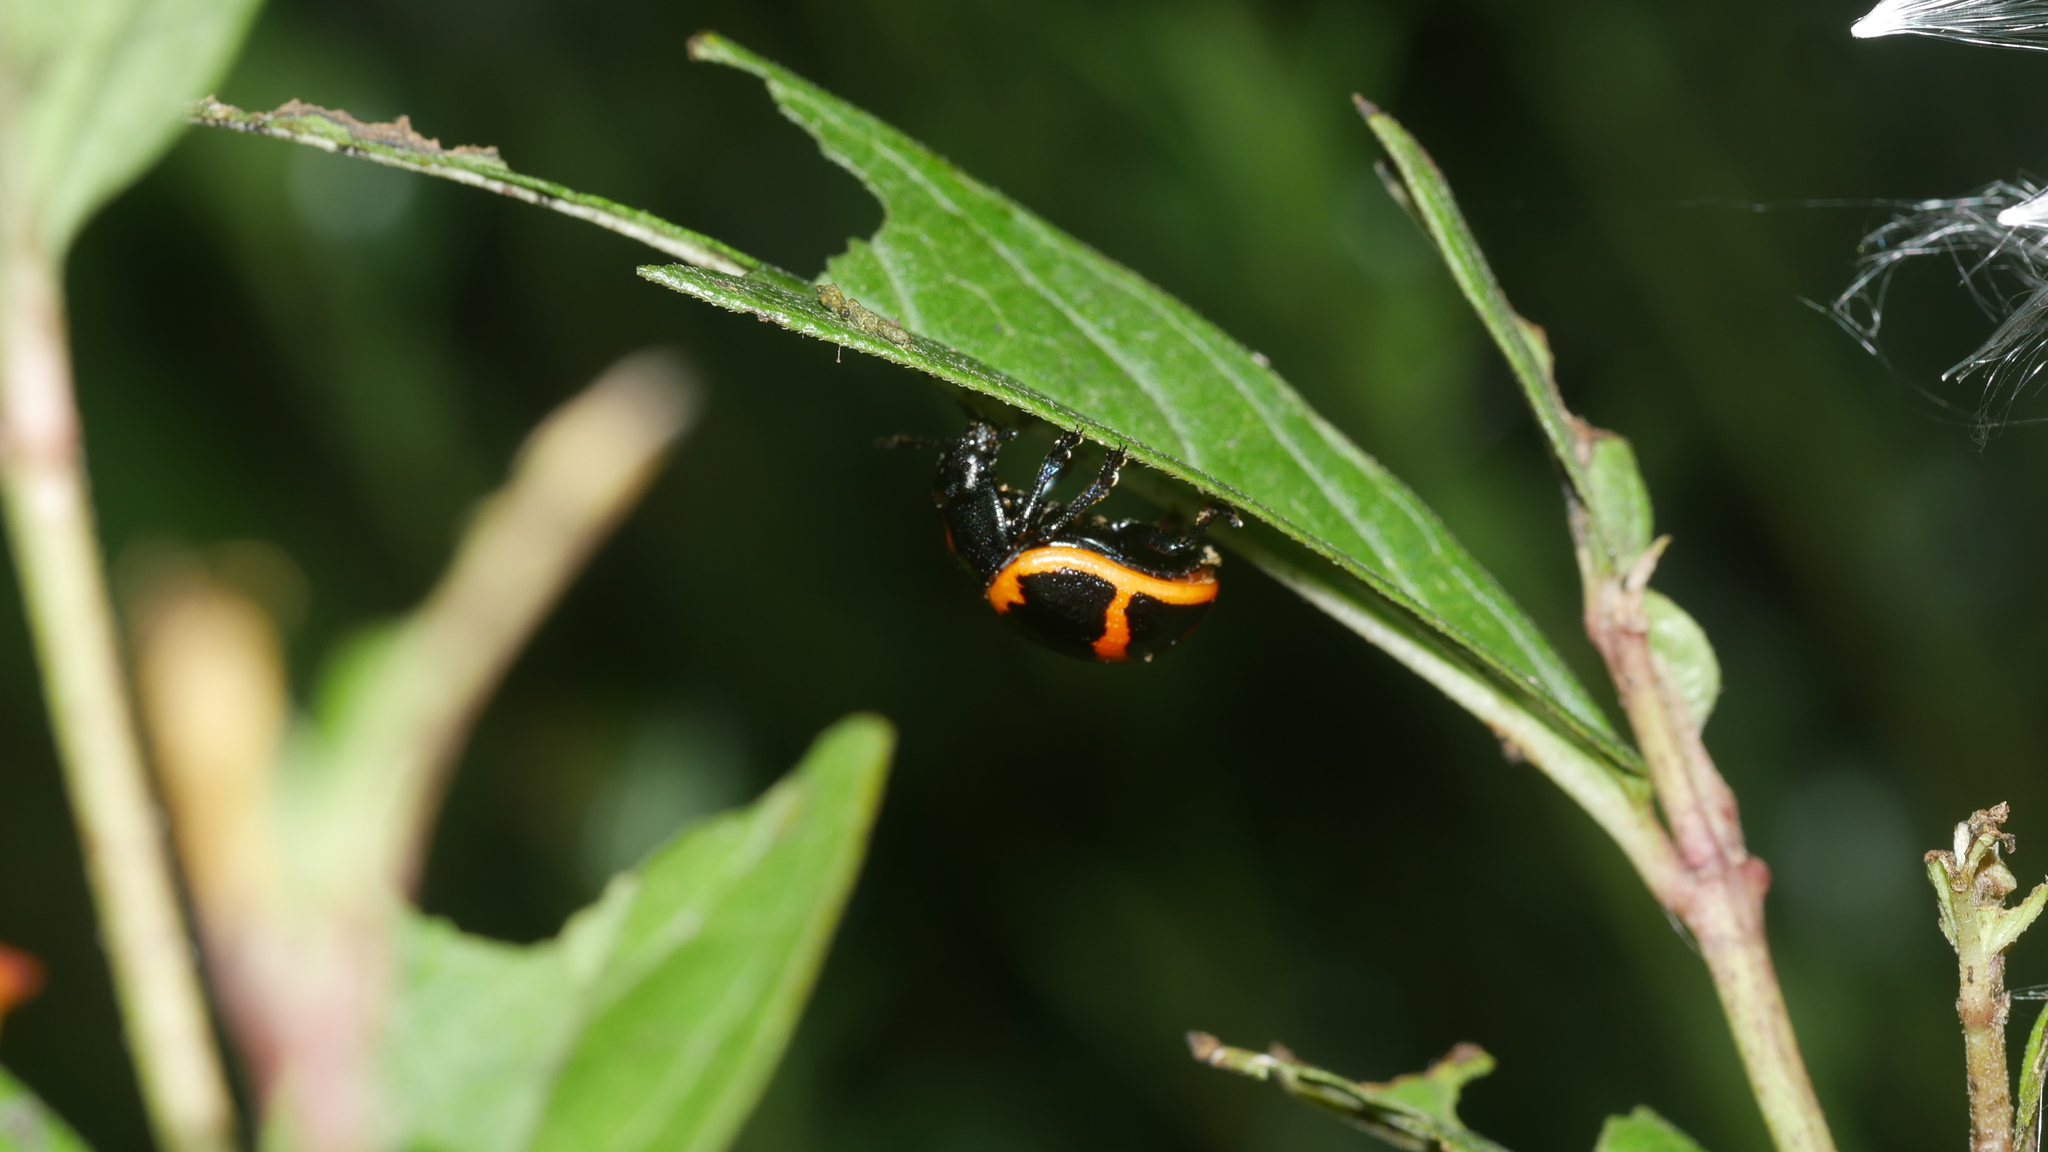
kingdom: Animalia
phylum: Arthropoda
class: Insecta
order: Coleoptera
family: Chrysomelidae
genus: Labidomera
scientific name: Labidomera clivicollis
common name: Swamp milkweed leaf beetle
